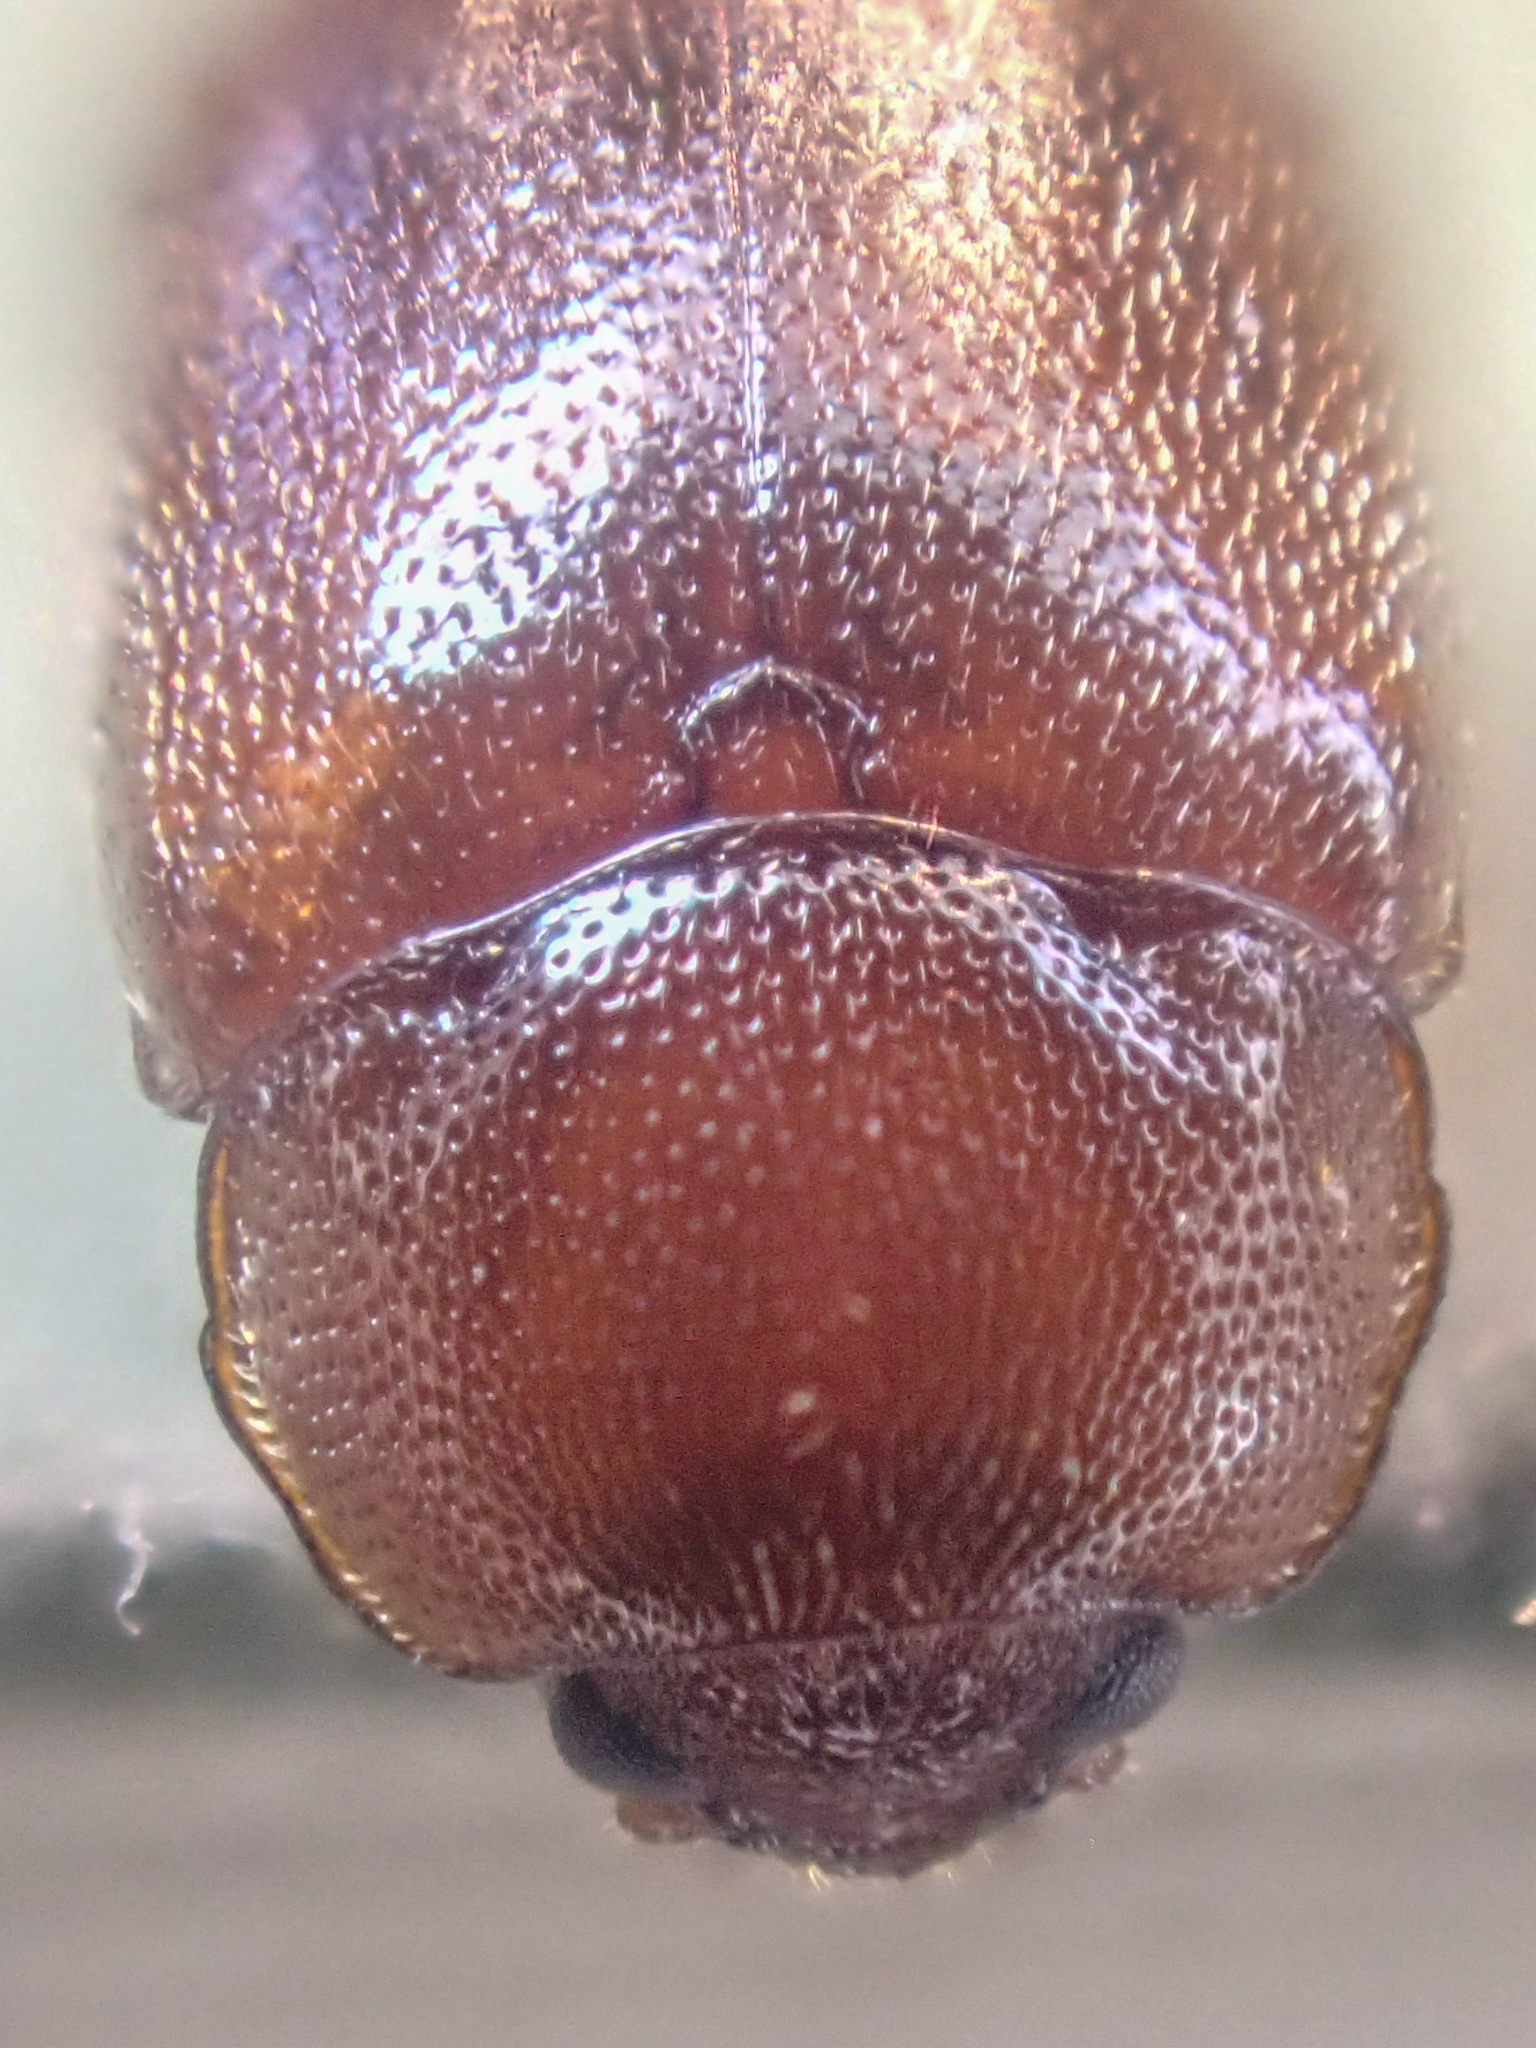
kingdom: Animalia
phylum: Arthropoda
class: Insecta
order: Coleoptera
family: Tetratomidae
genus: Tetratoma
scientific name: Tetratoma concolor
